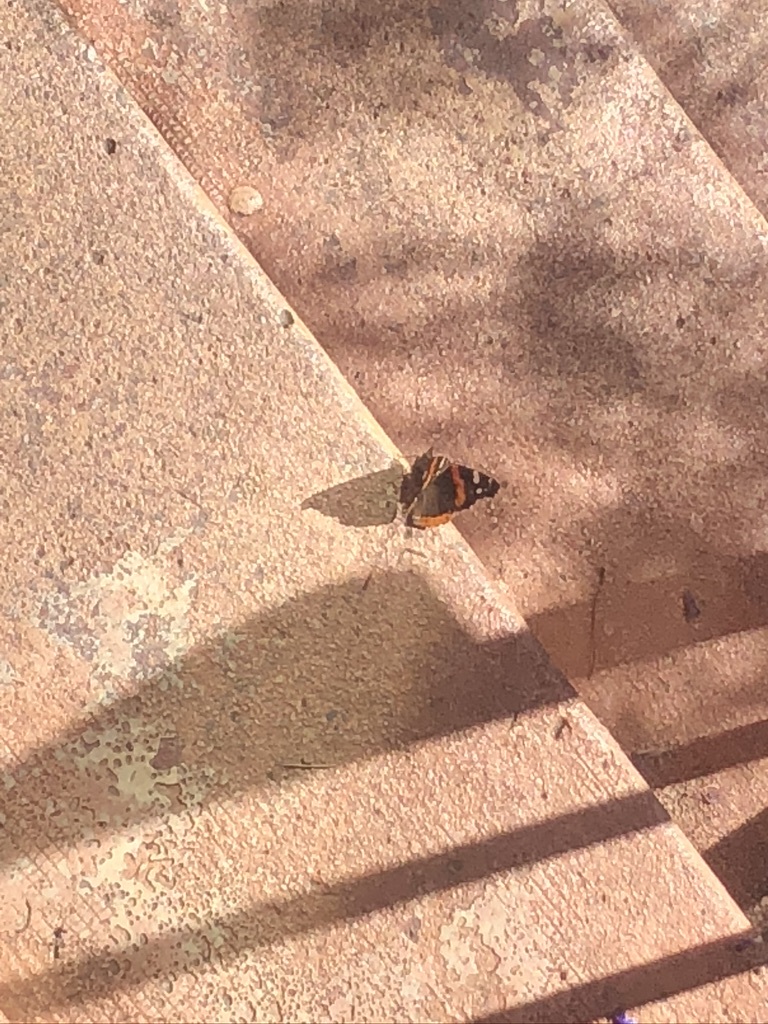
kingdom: Animalia
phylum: Arthropoda
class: Insecta
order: Lepidoptera
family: Nymphalidae
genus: Vanessa
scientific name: Vanessa atalanta
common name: Red admiral
